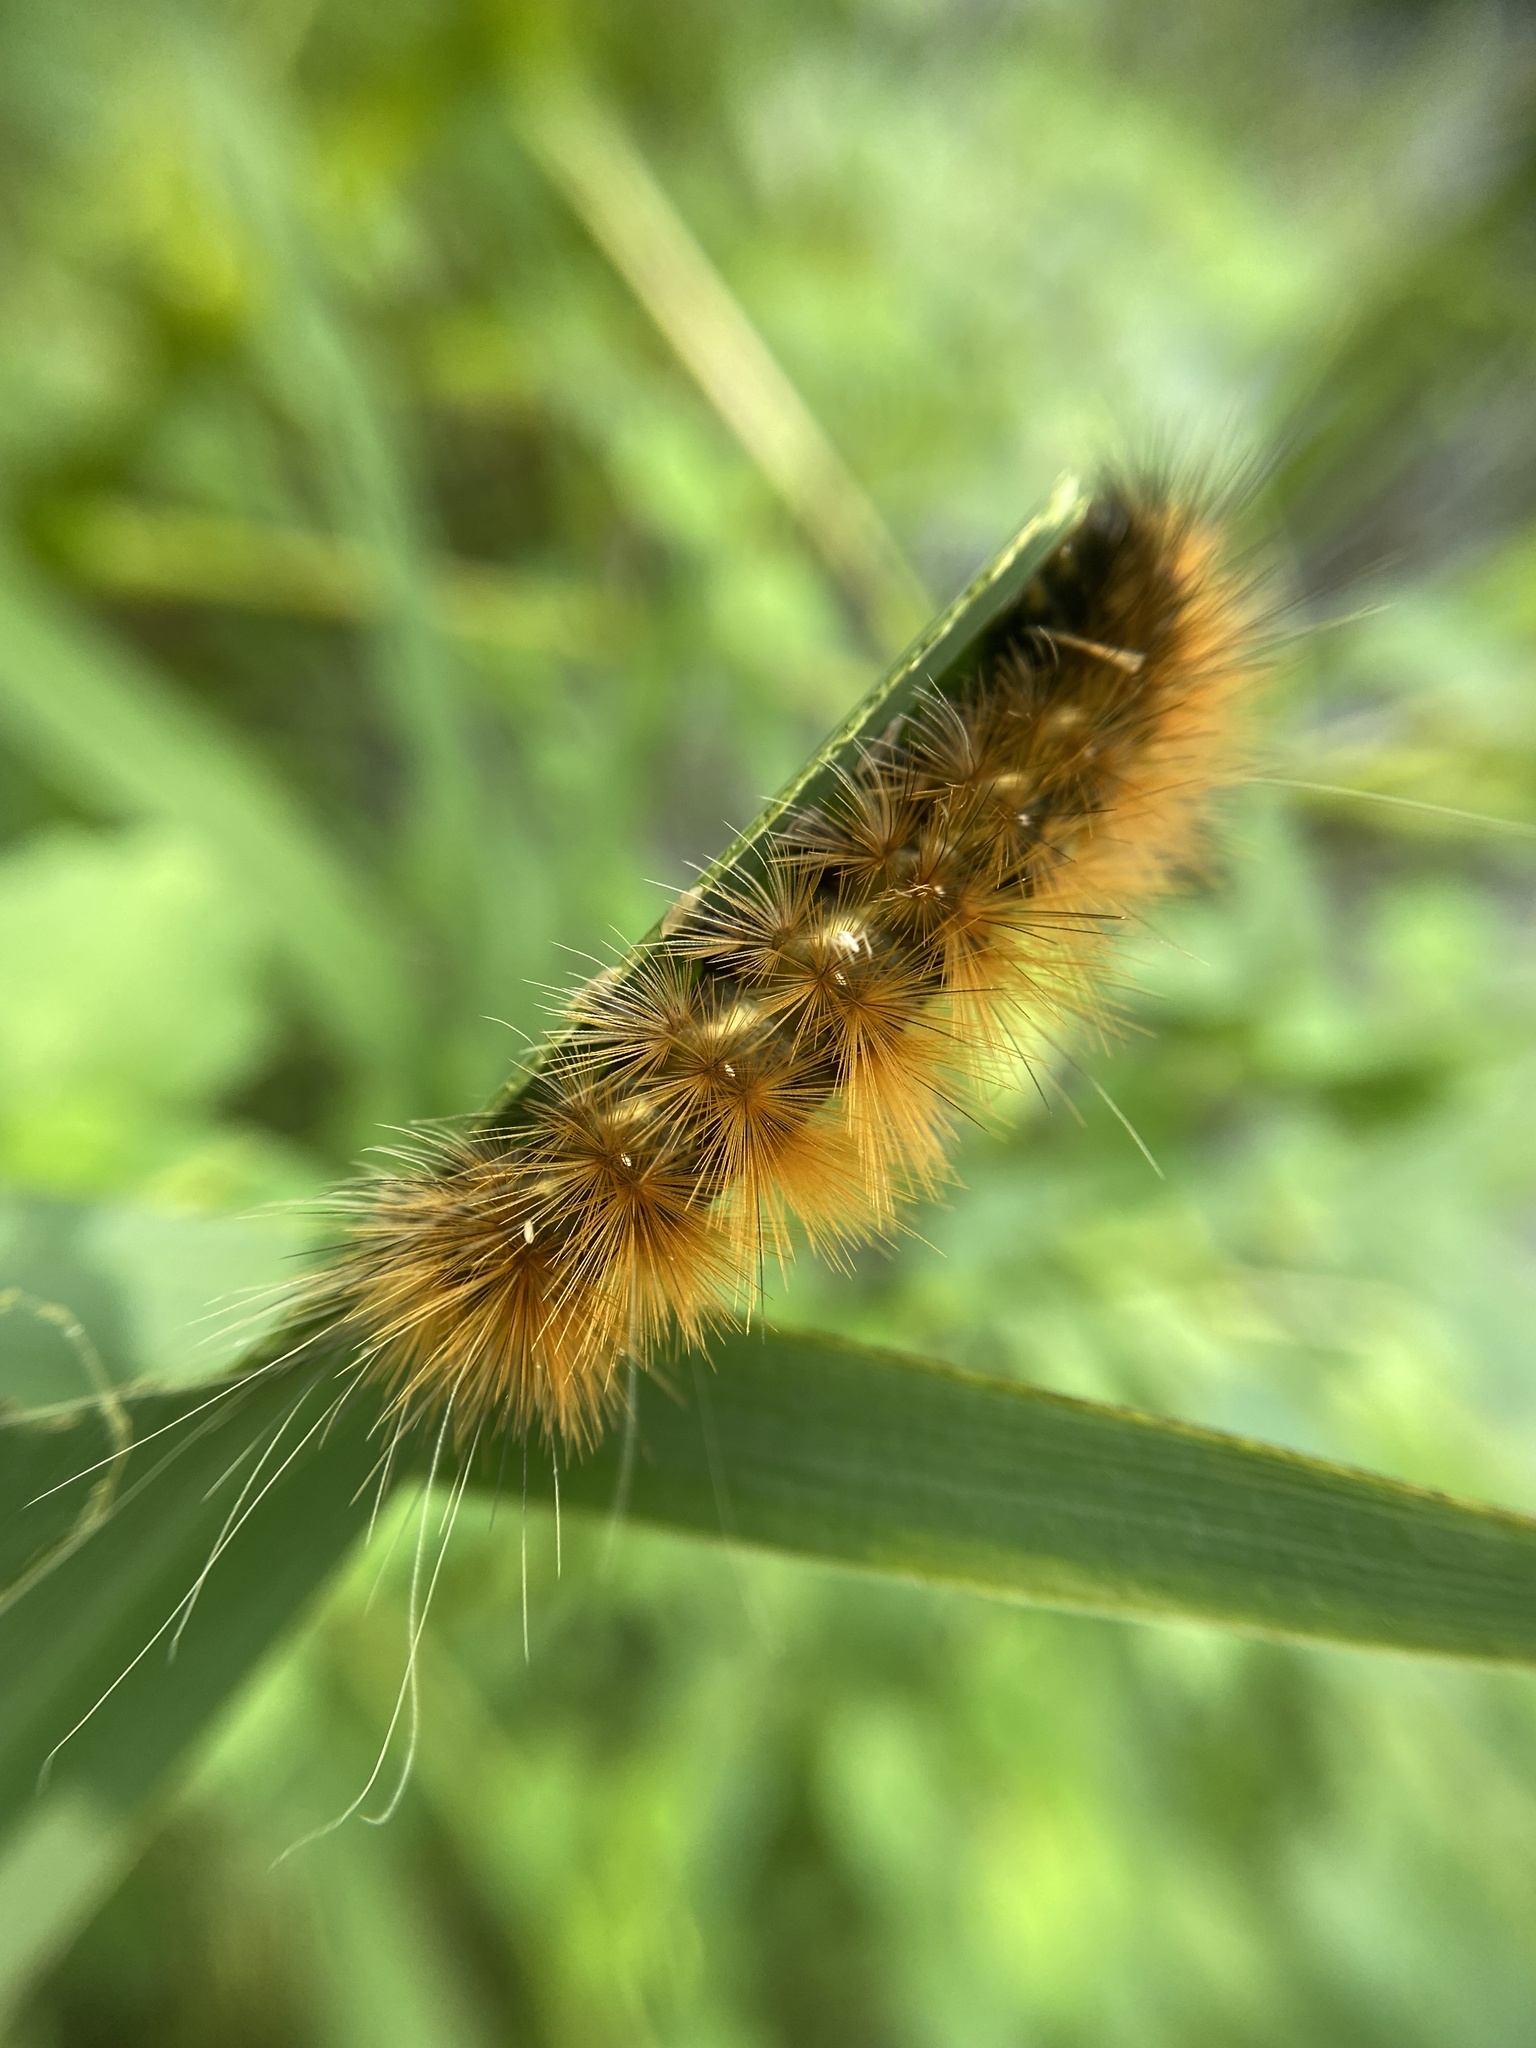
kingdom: Animalia
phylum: Arthropoda
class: Insecta
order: Lepidoptera
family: Erebidae
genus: Spilosoma
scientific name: Spilosoma virginica
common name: Virginia tiger moth
